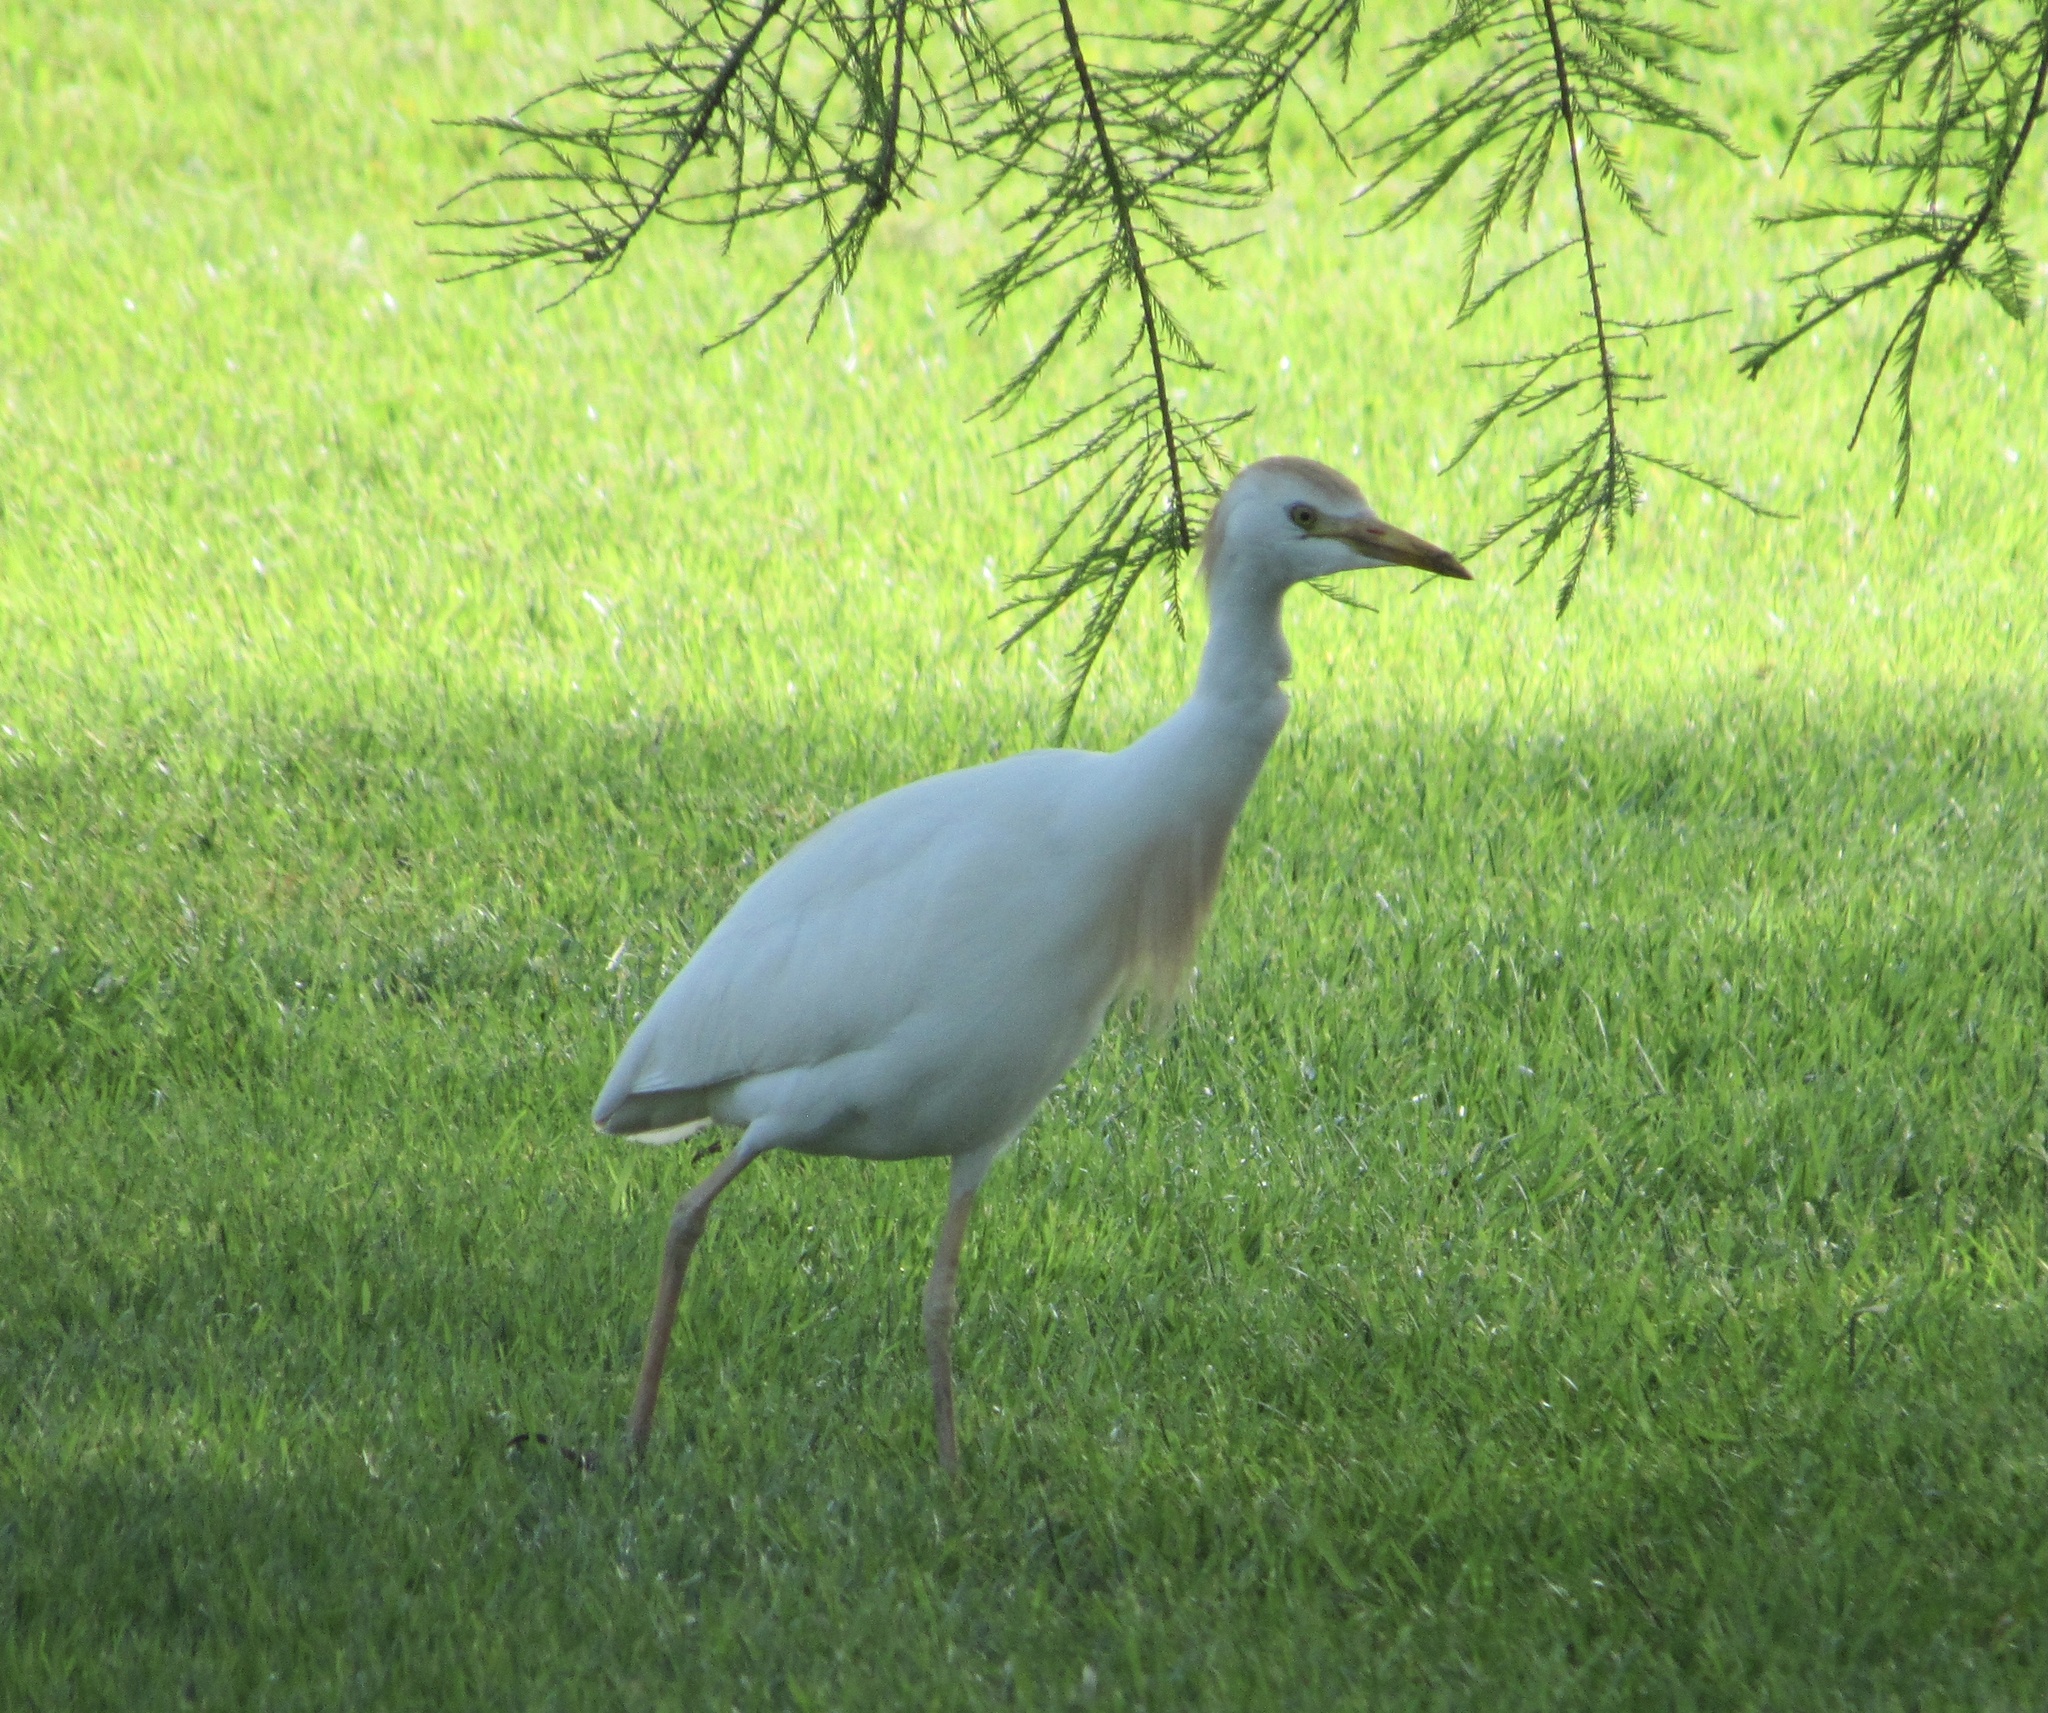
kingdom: Animalia
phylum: Chordata
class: Aves
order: Pelecaniformes
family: Ardeidae
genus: Bubulcus
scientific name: Bubulcus ibis
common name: Cattle egret
